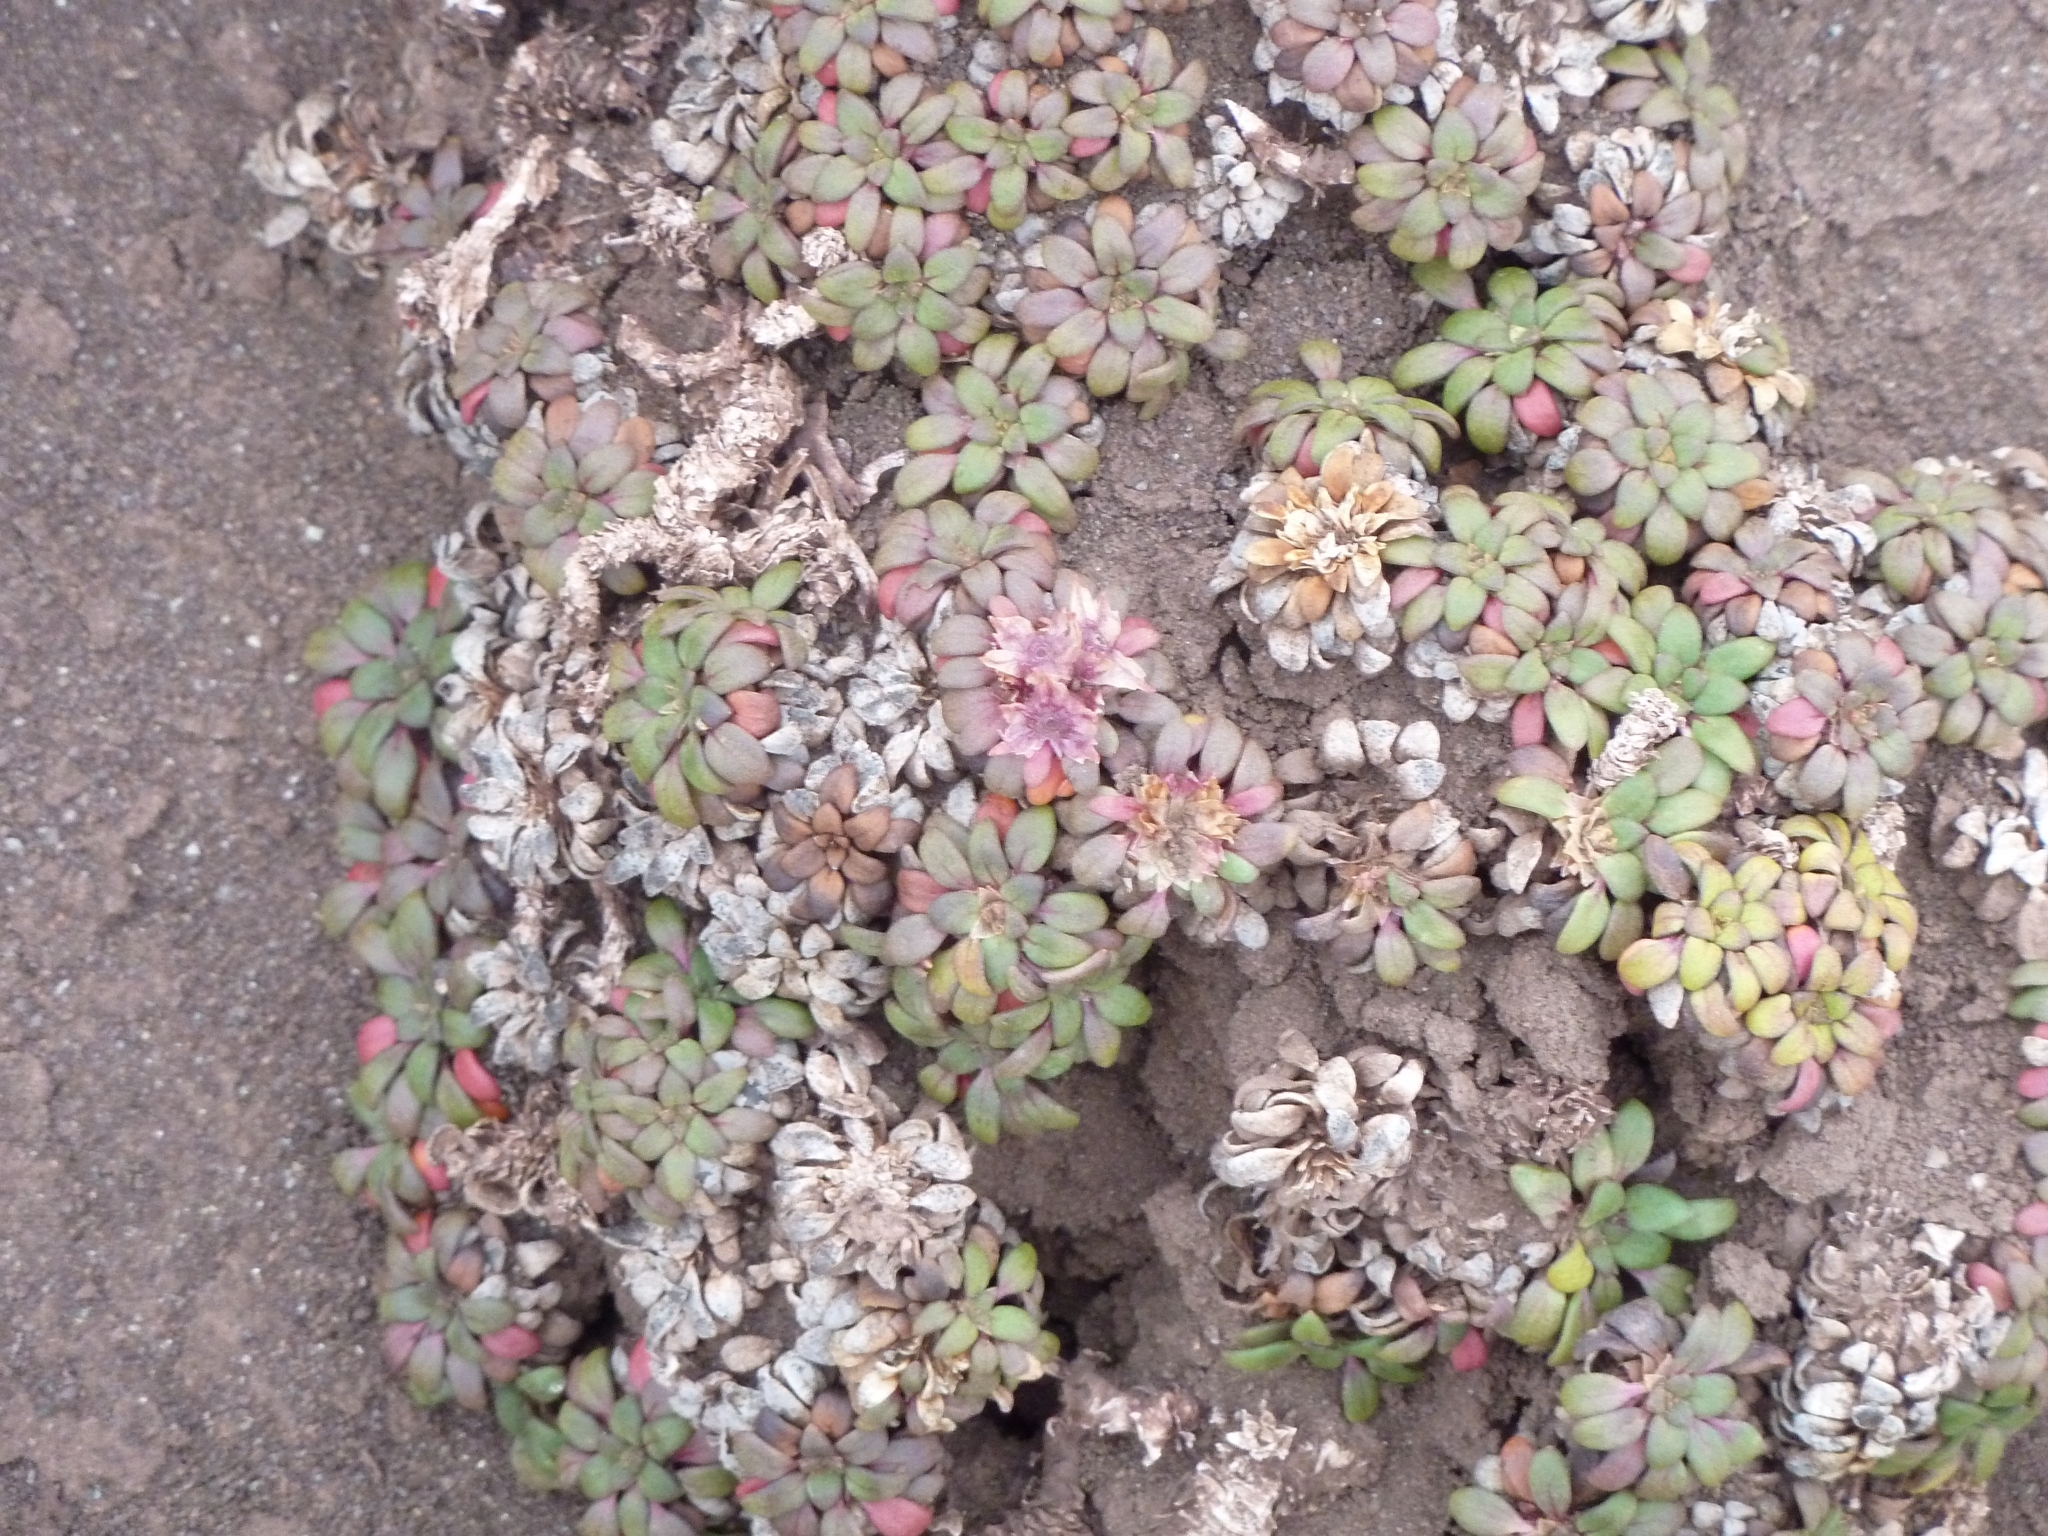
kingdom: Plantae
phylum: Tracheophyta
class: Magnoliopsida
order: Gentianales
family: Rubiaceae
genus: Oreopolus
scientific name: Oreopolus glacialis
